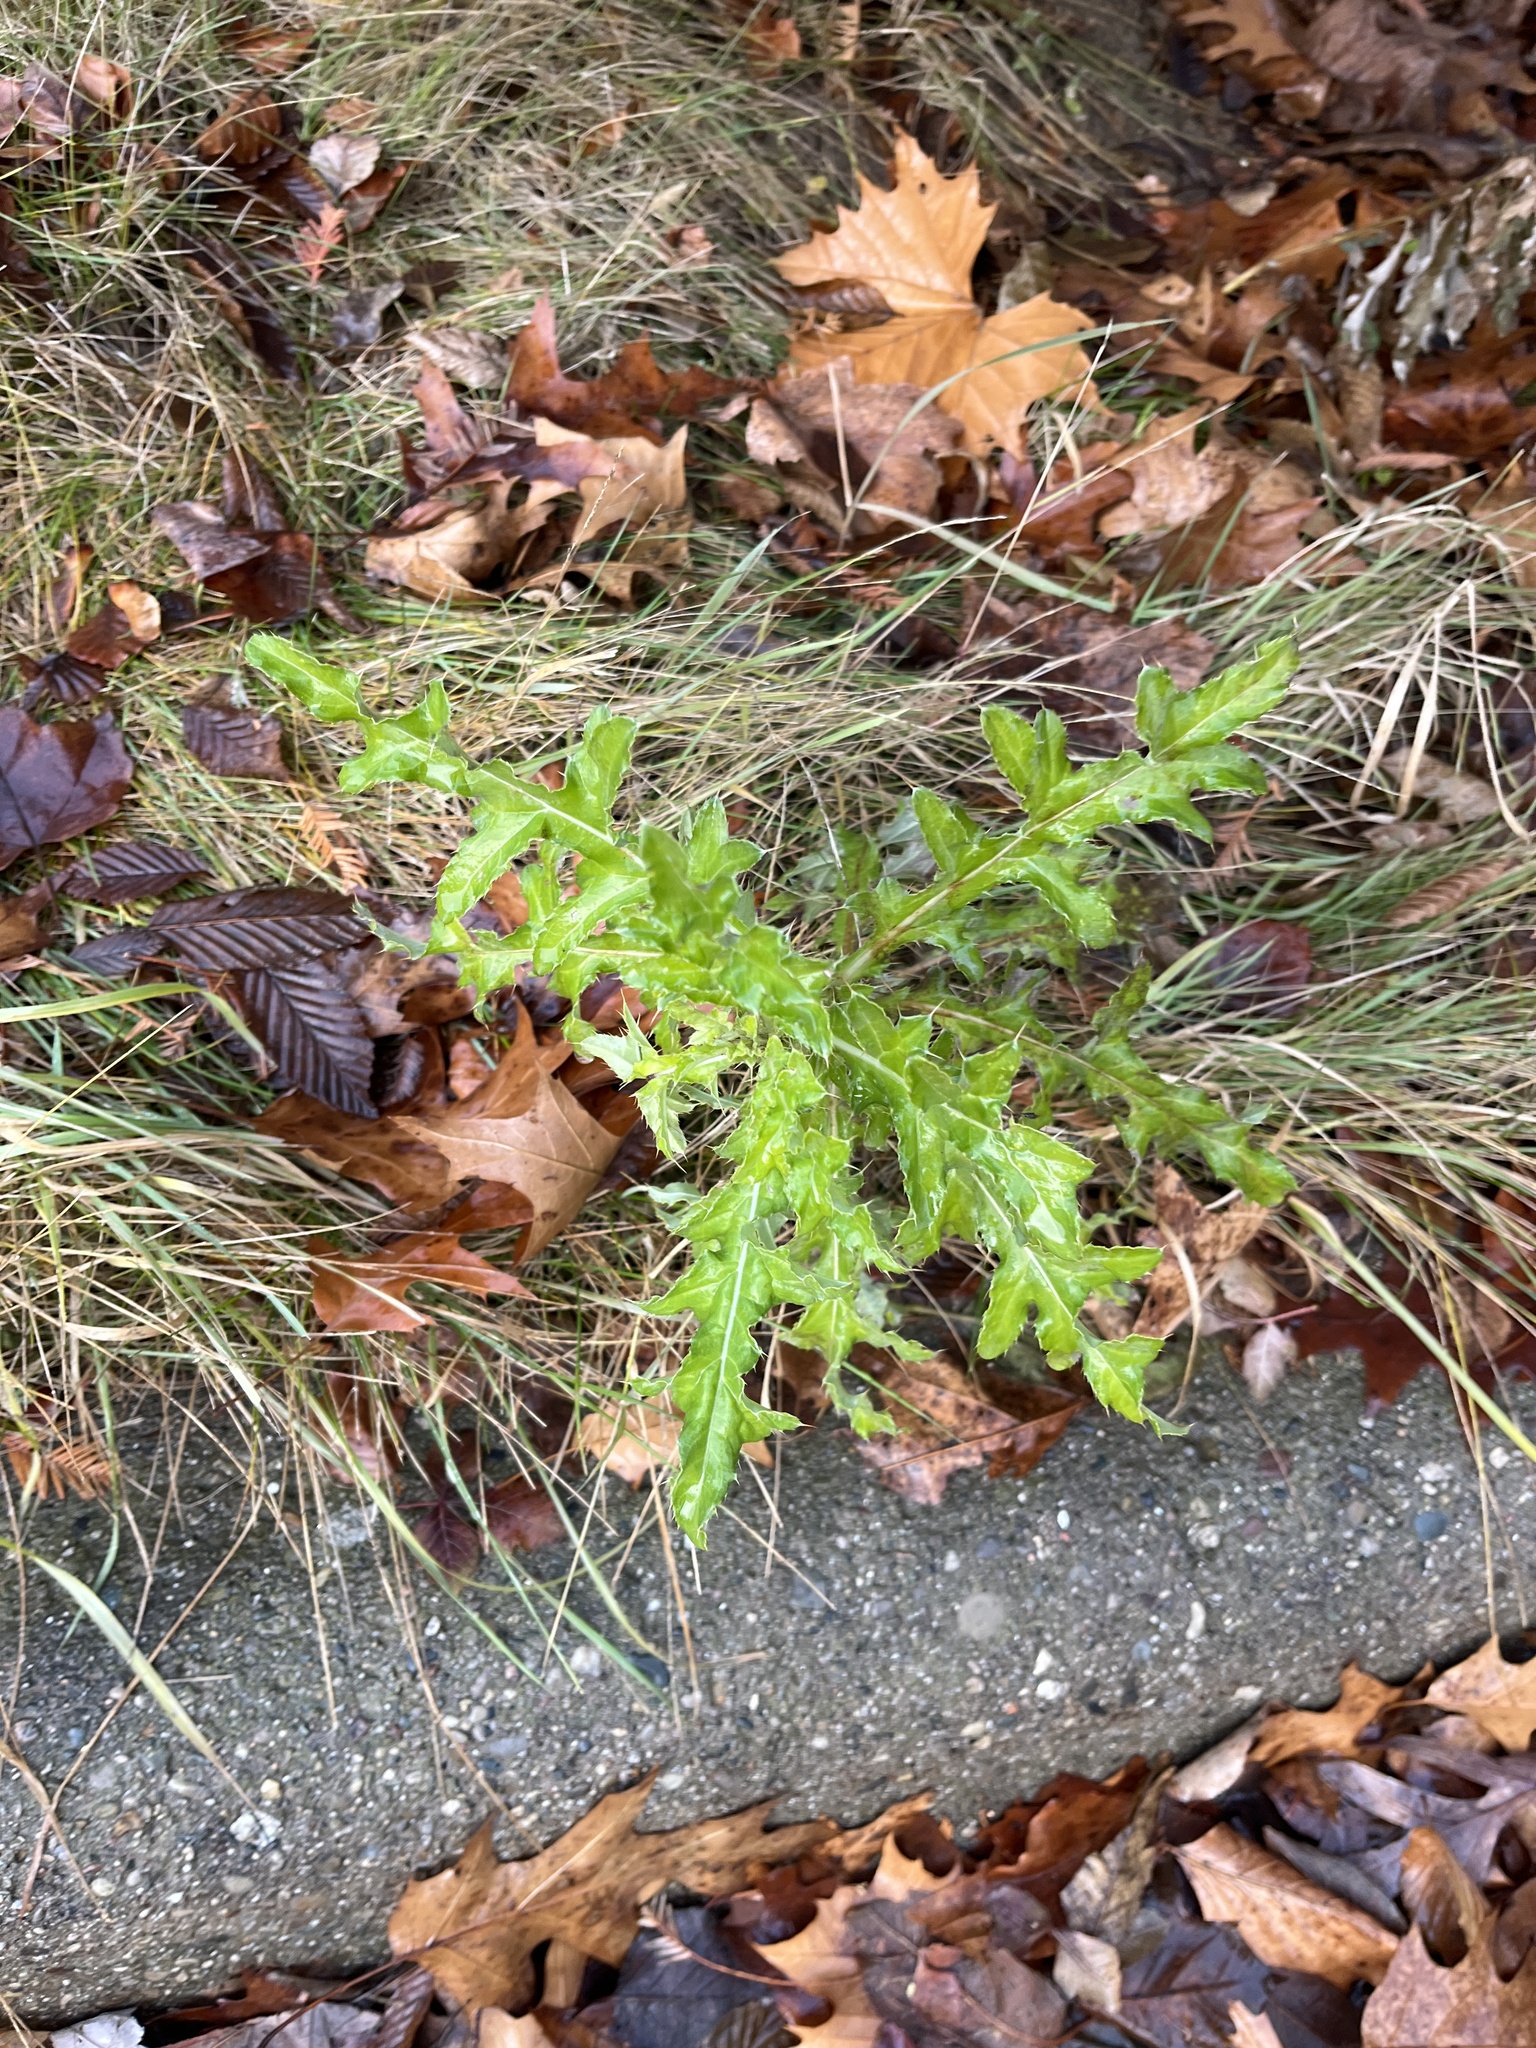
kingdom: Plantae
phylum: Tracheophyta
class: Magnoliopsida
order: Asterales
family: Asteraceae
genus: Cirsium
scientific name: Cirsium arvense
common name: Creeping thistle
